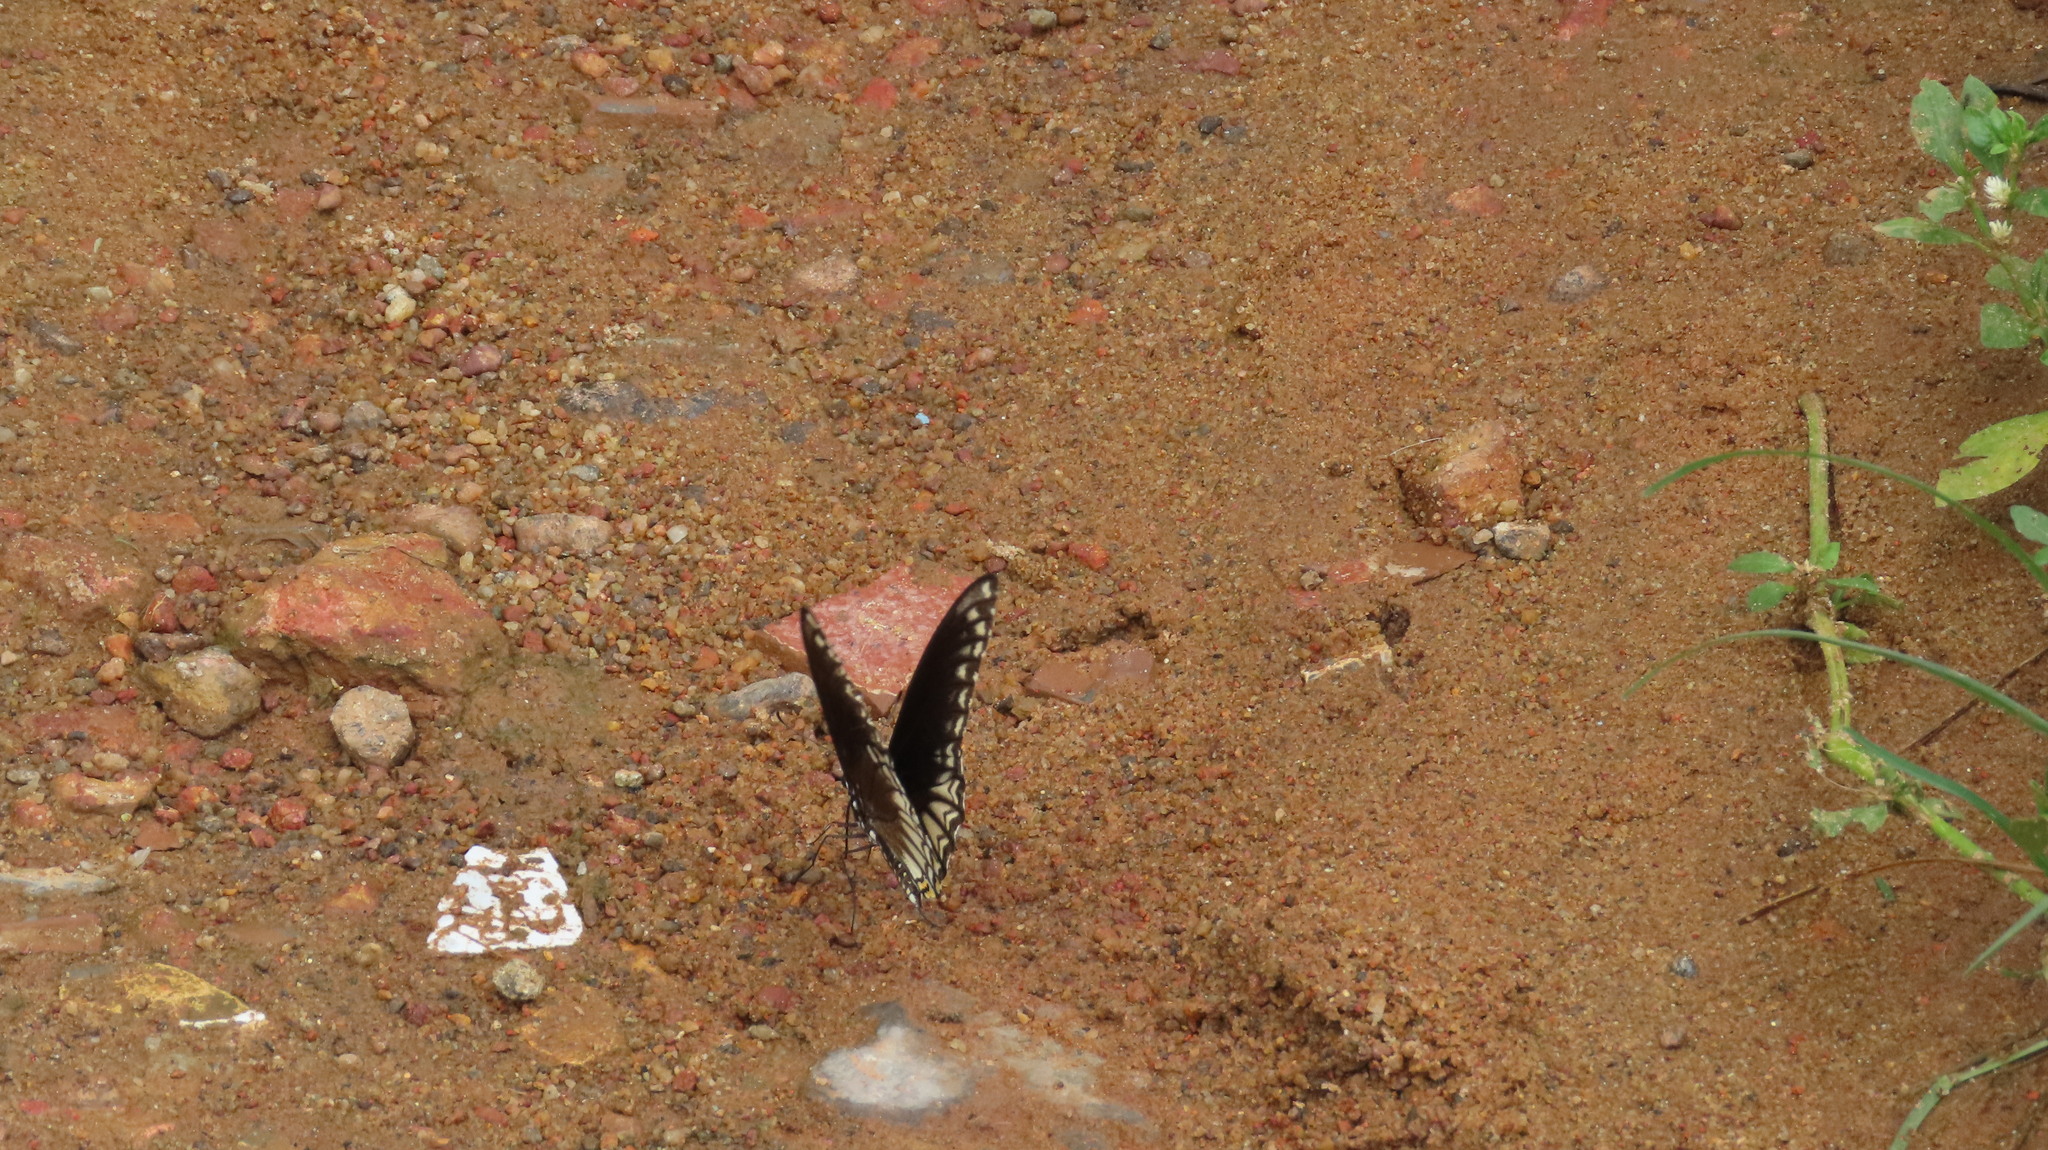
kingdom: Animalia
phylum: Arthropoda
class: Insecta
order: Lepidoptera
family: Papilionidae
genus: Chilasa
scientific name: Chilasa clytia
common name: Common mime
